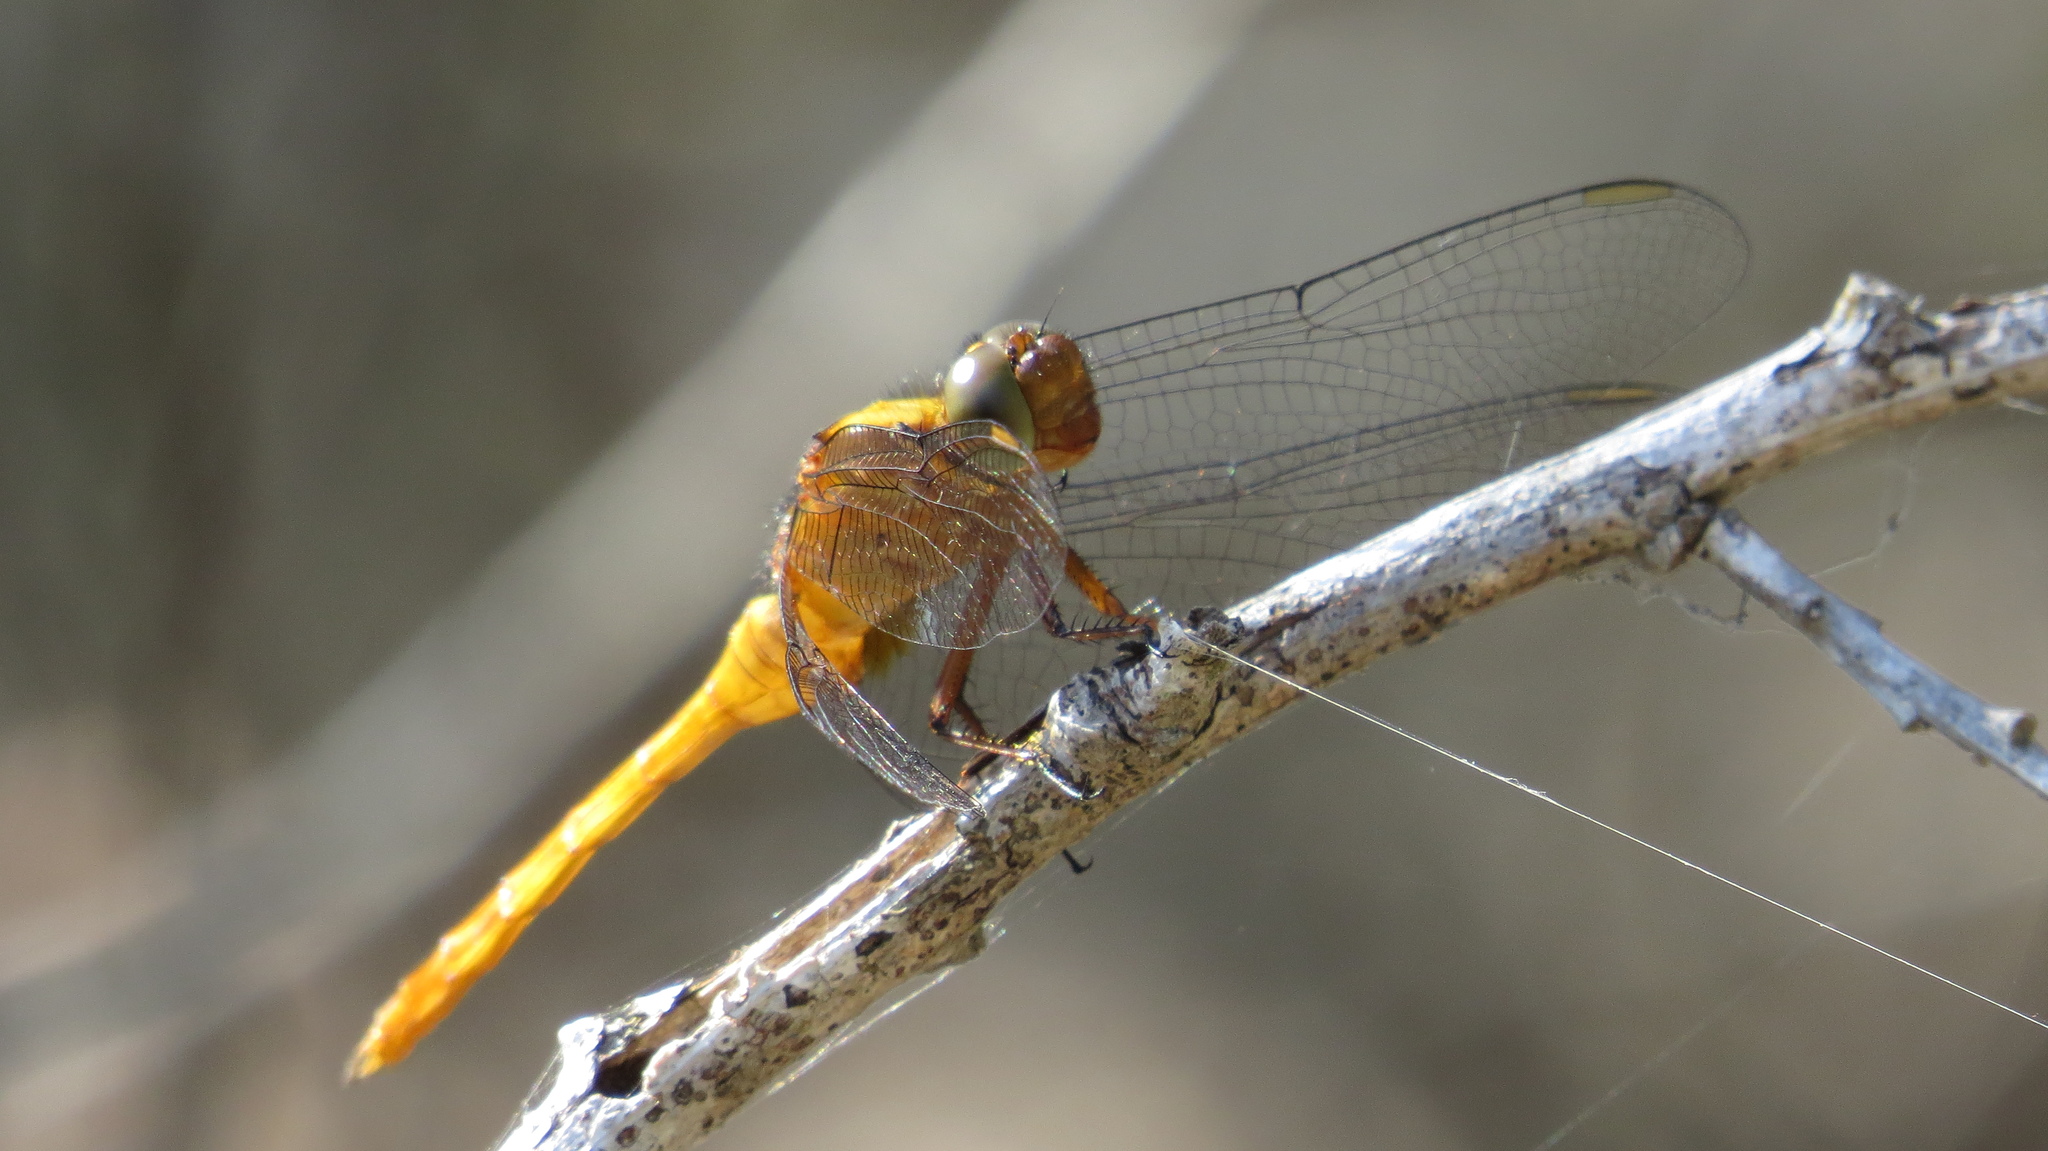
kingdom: Animalia
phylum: Arthropoda
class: Insecta
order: Odonata
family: Libellulidae
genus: Orthetrum
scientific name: Orthetrum villosovittatum
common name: Firery skimmer
